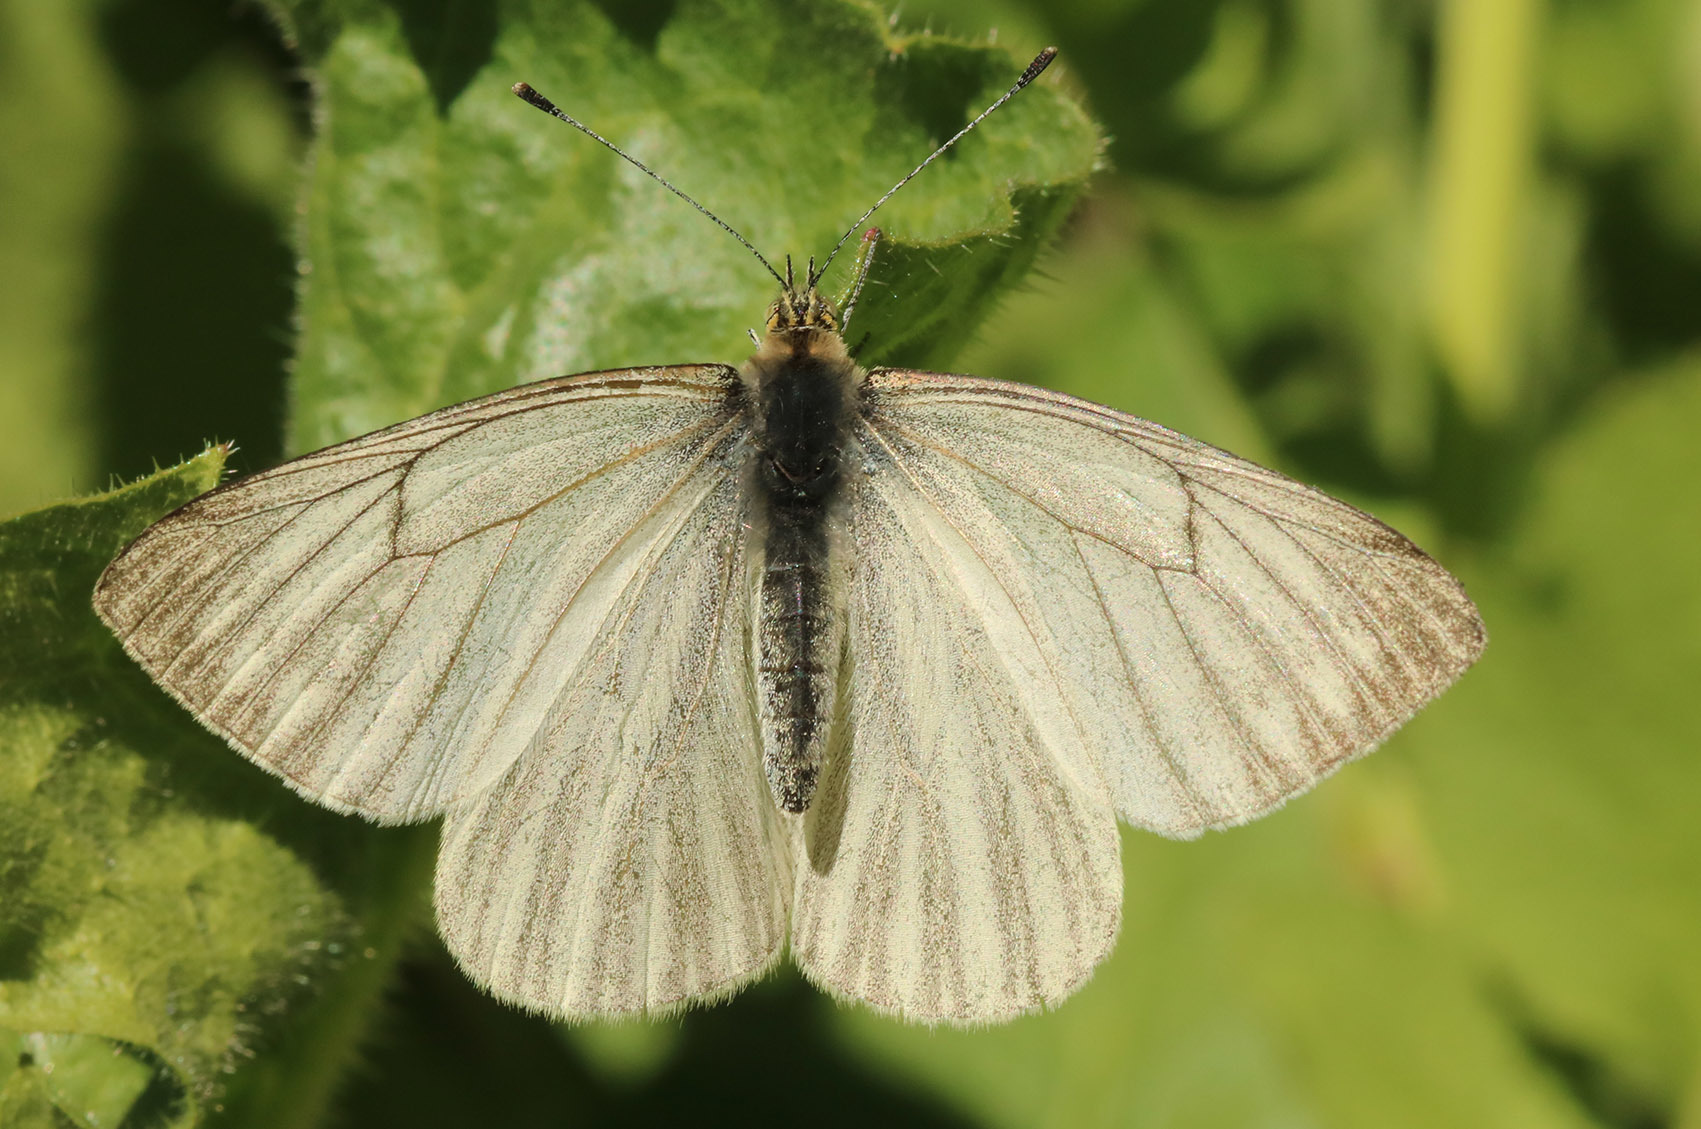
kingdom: Animalia
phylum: Arthropoda
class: Insecta
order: Lepidoptera
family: Pieridae
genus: Theochila
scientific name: Theochila maenacte
